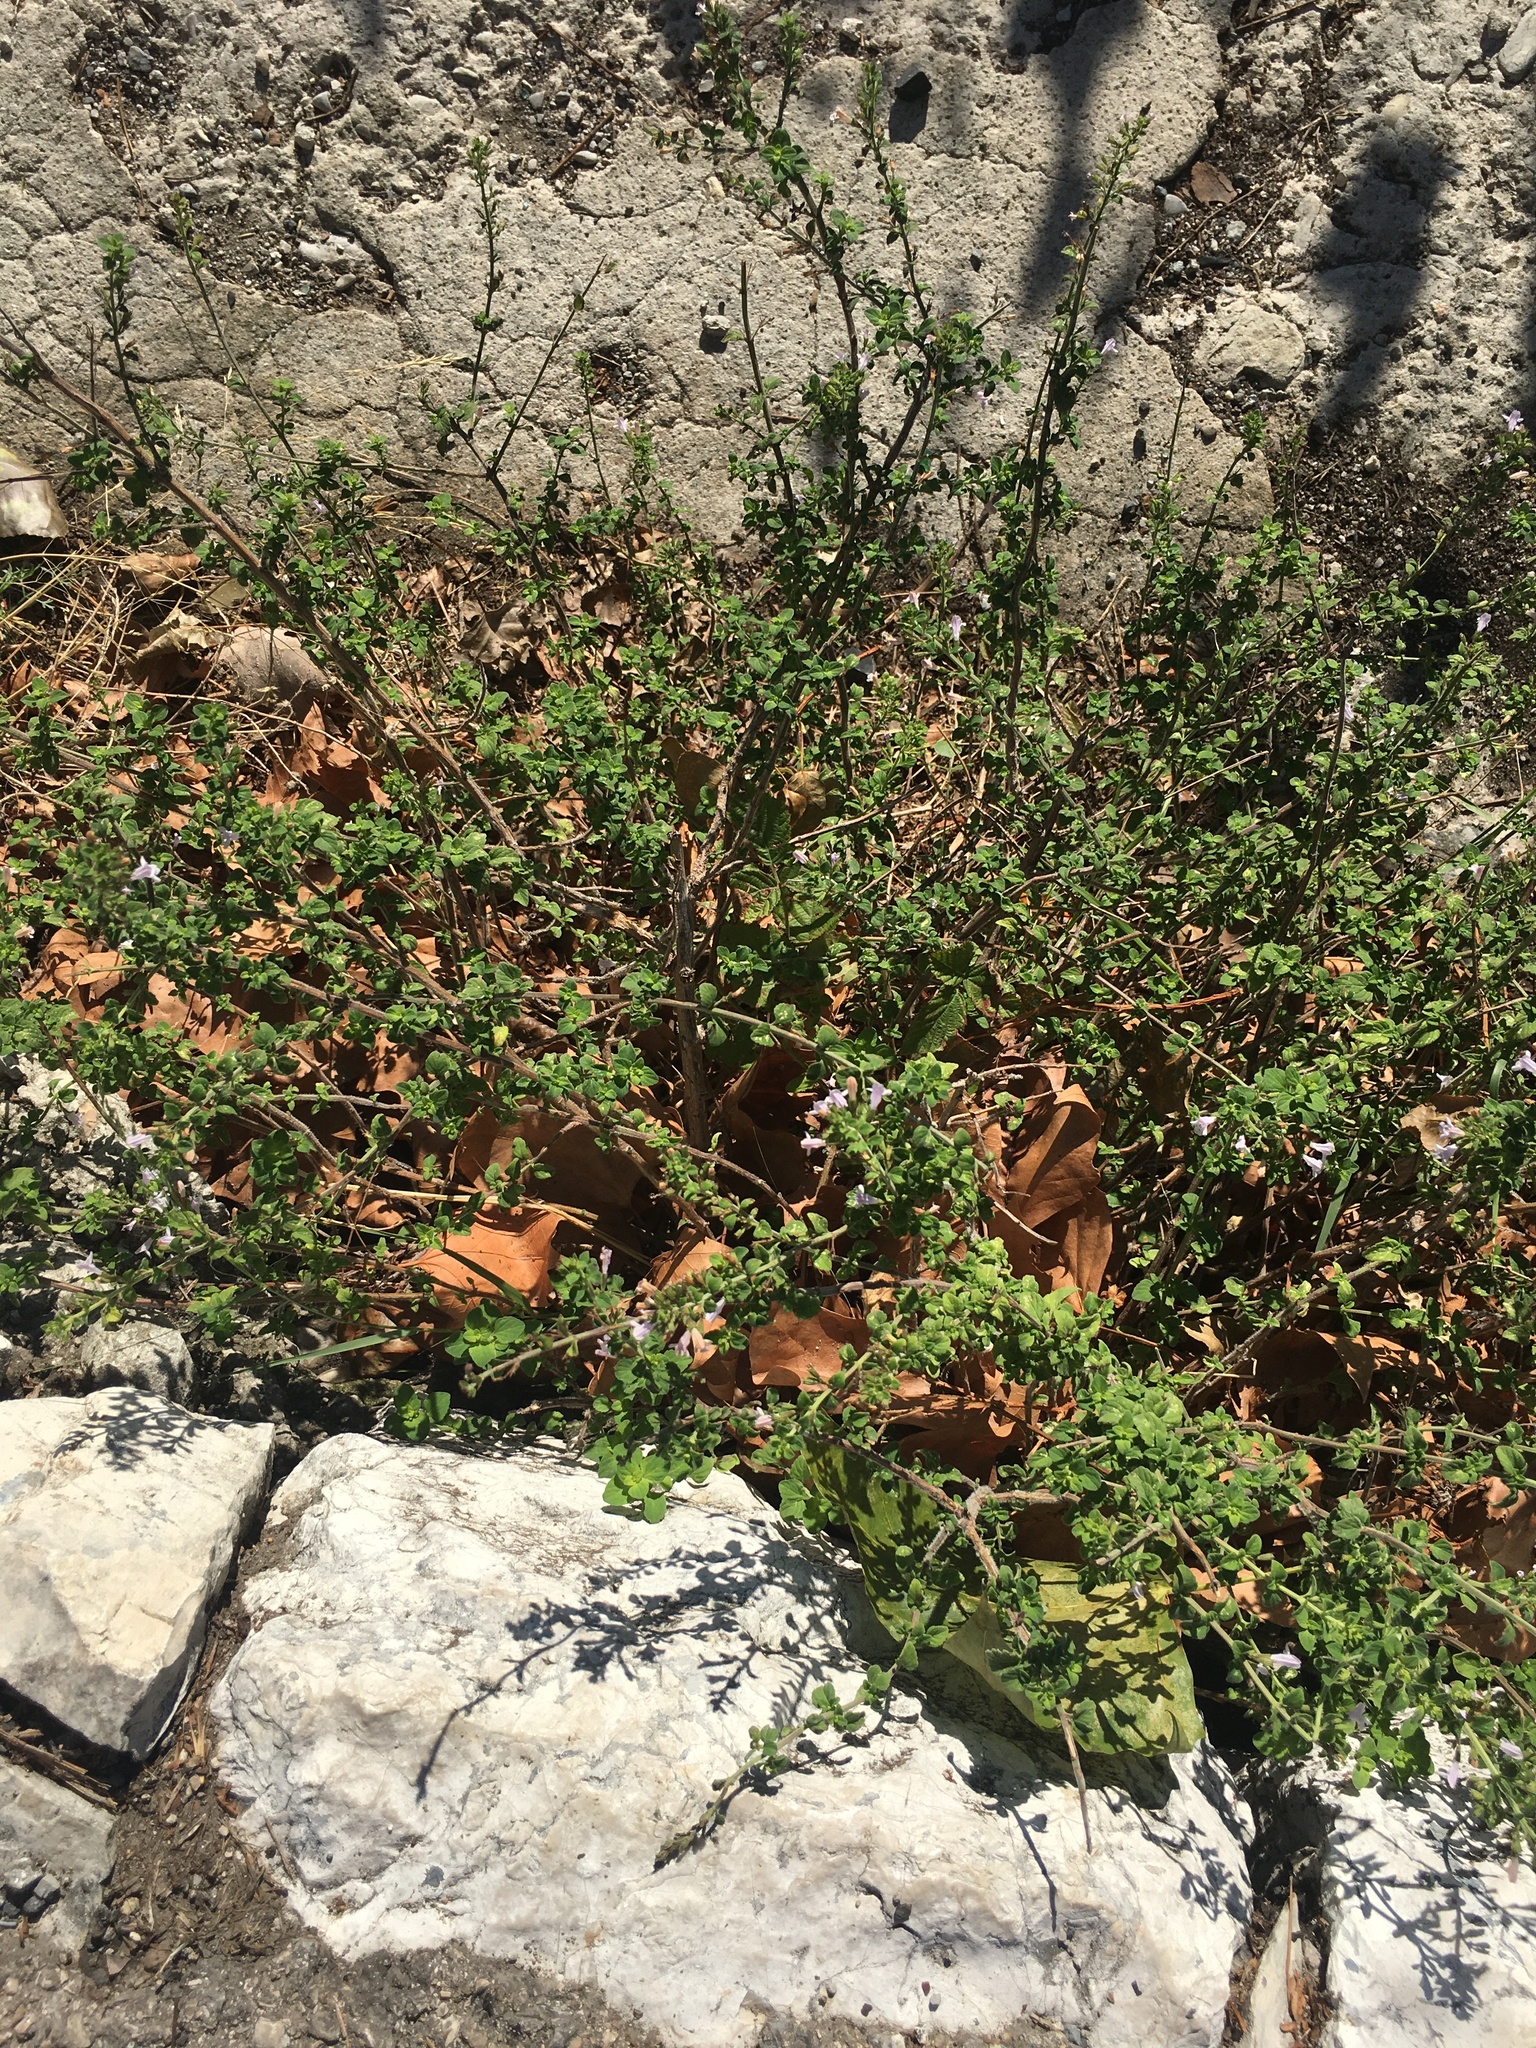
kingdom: Plantae
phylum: Tracheophyta
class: Magnoliopsida
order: Lamiales
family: Lamiaceae
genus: Clinopodium
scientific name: Clinopodium nepeta
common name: Lesser calamint
